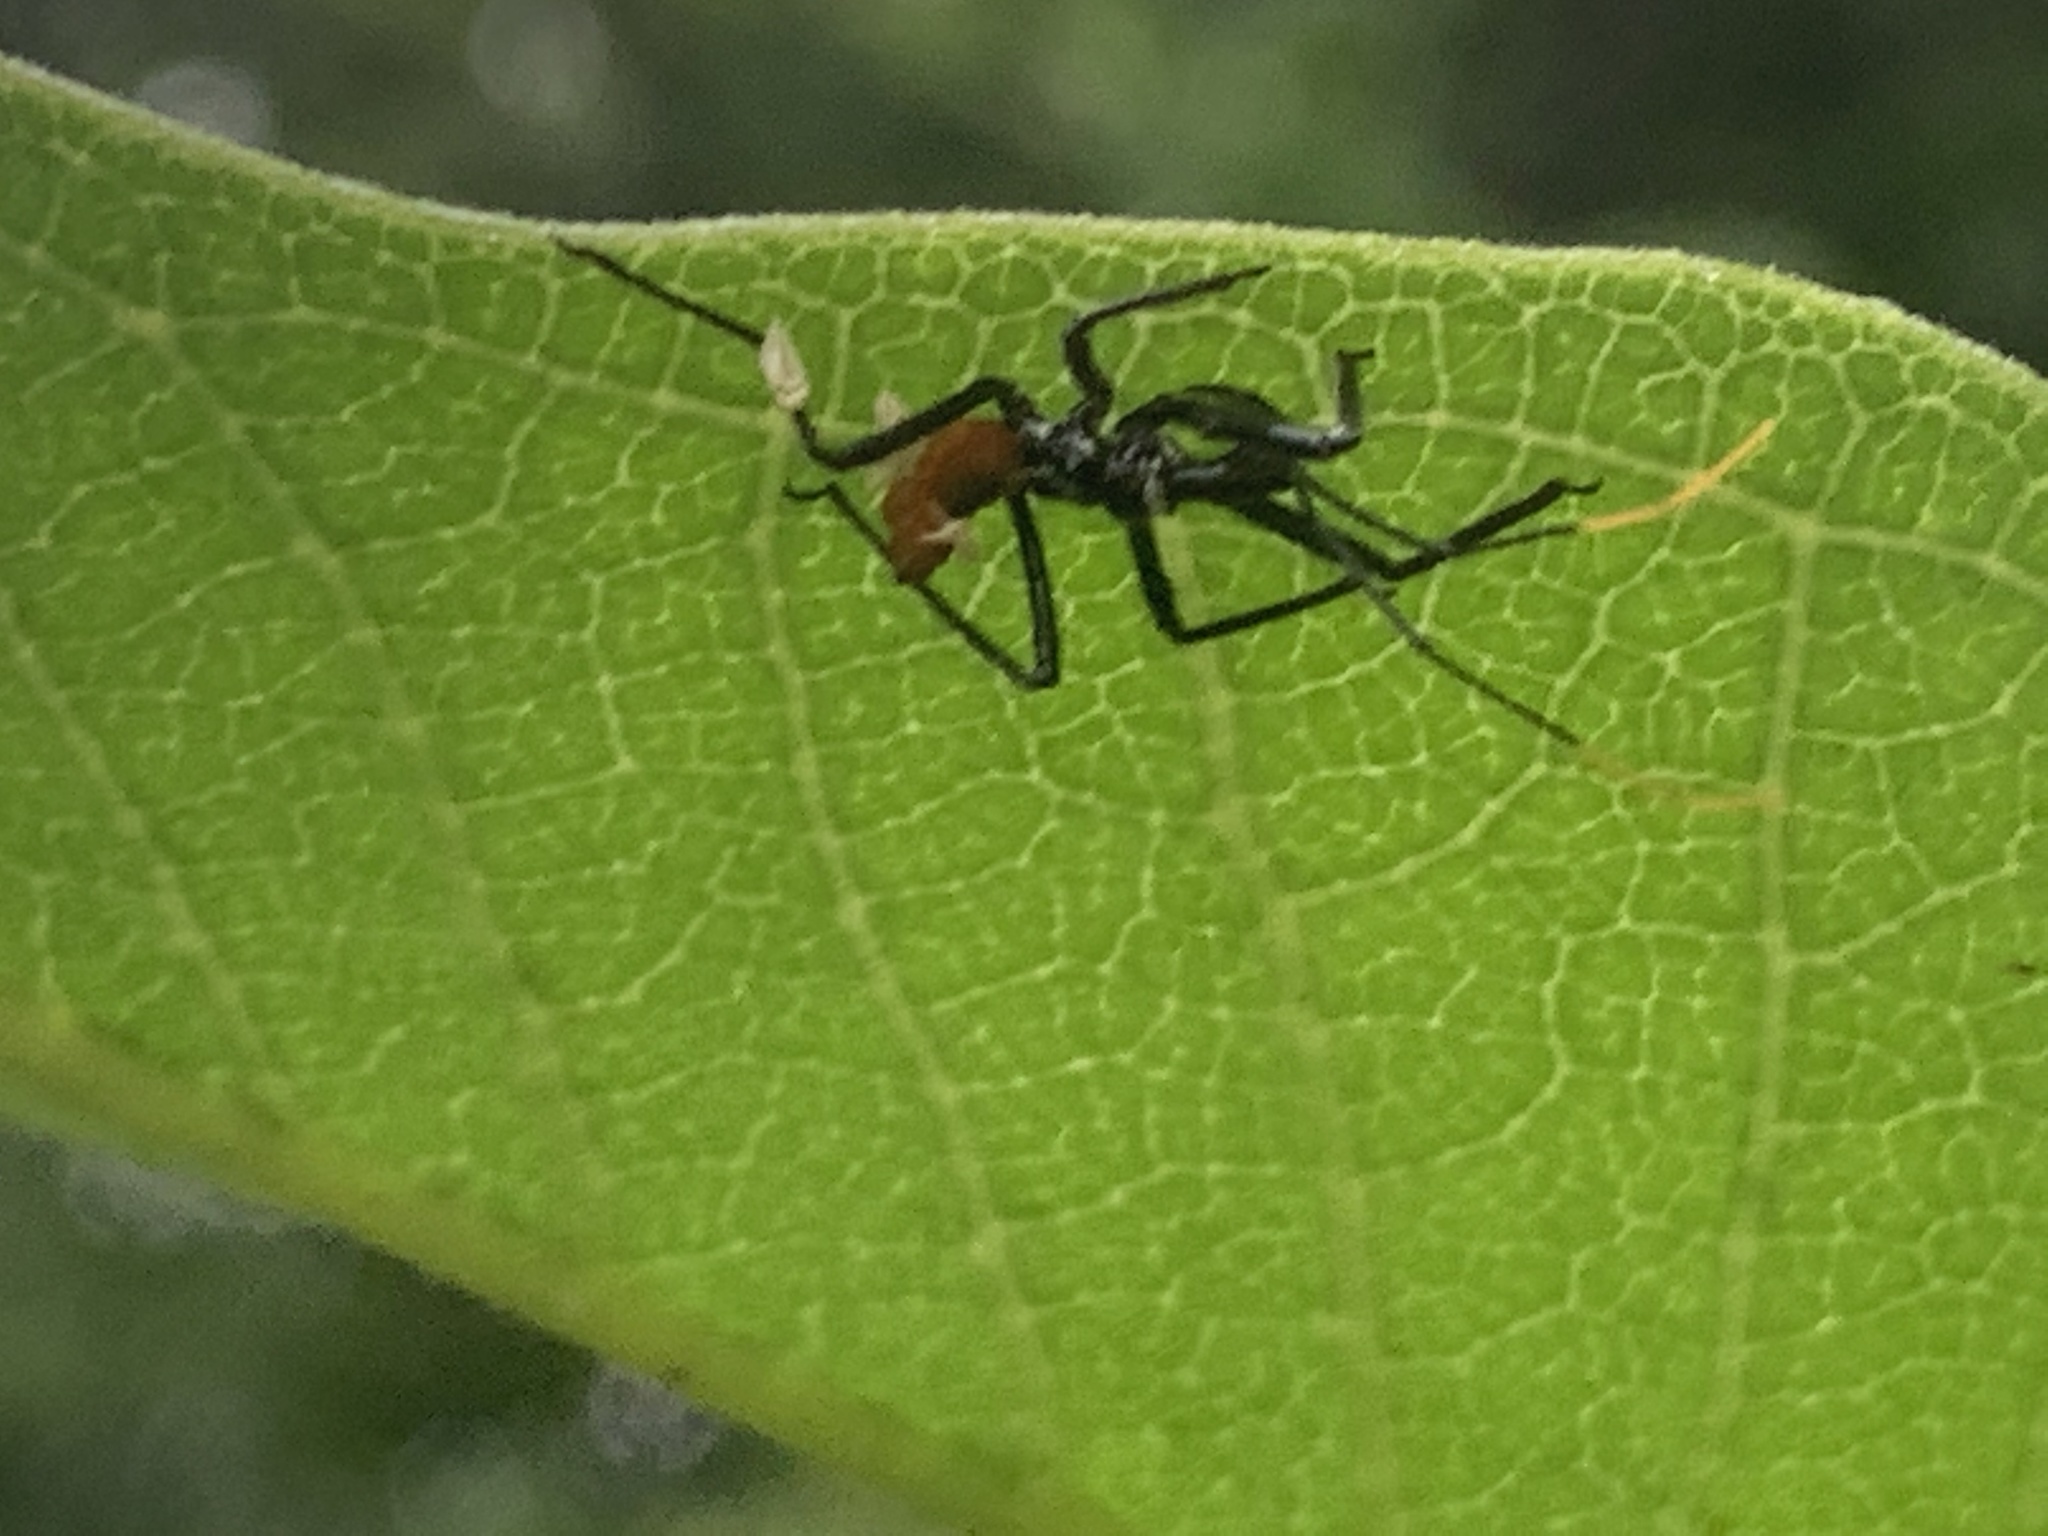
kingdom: Animalia
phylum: Arthropoda
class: Insecta
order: Hemiptera
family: Reduviidae
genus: Arilus
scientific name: Arilus cristatus
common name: North american wheel bug
